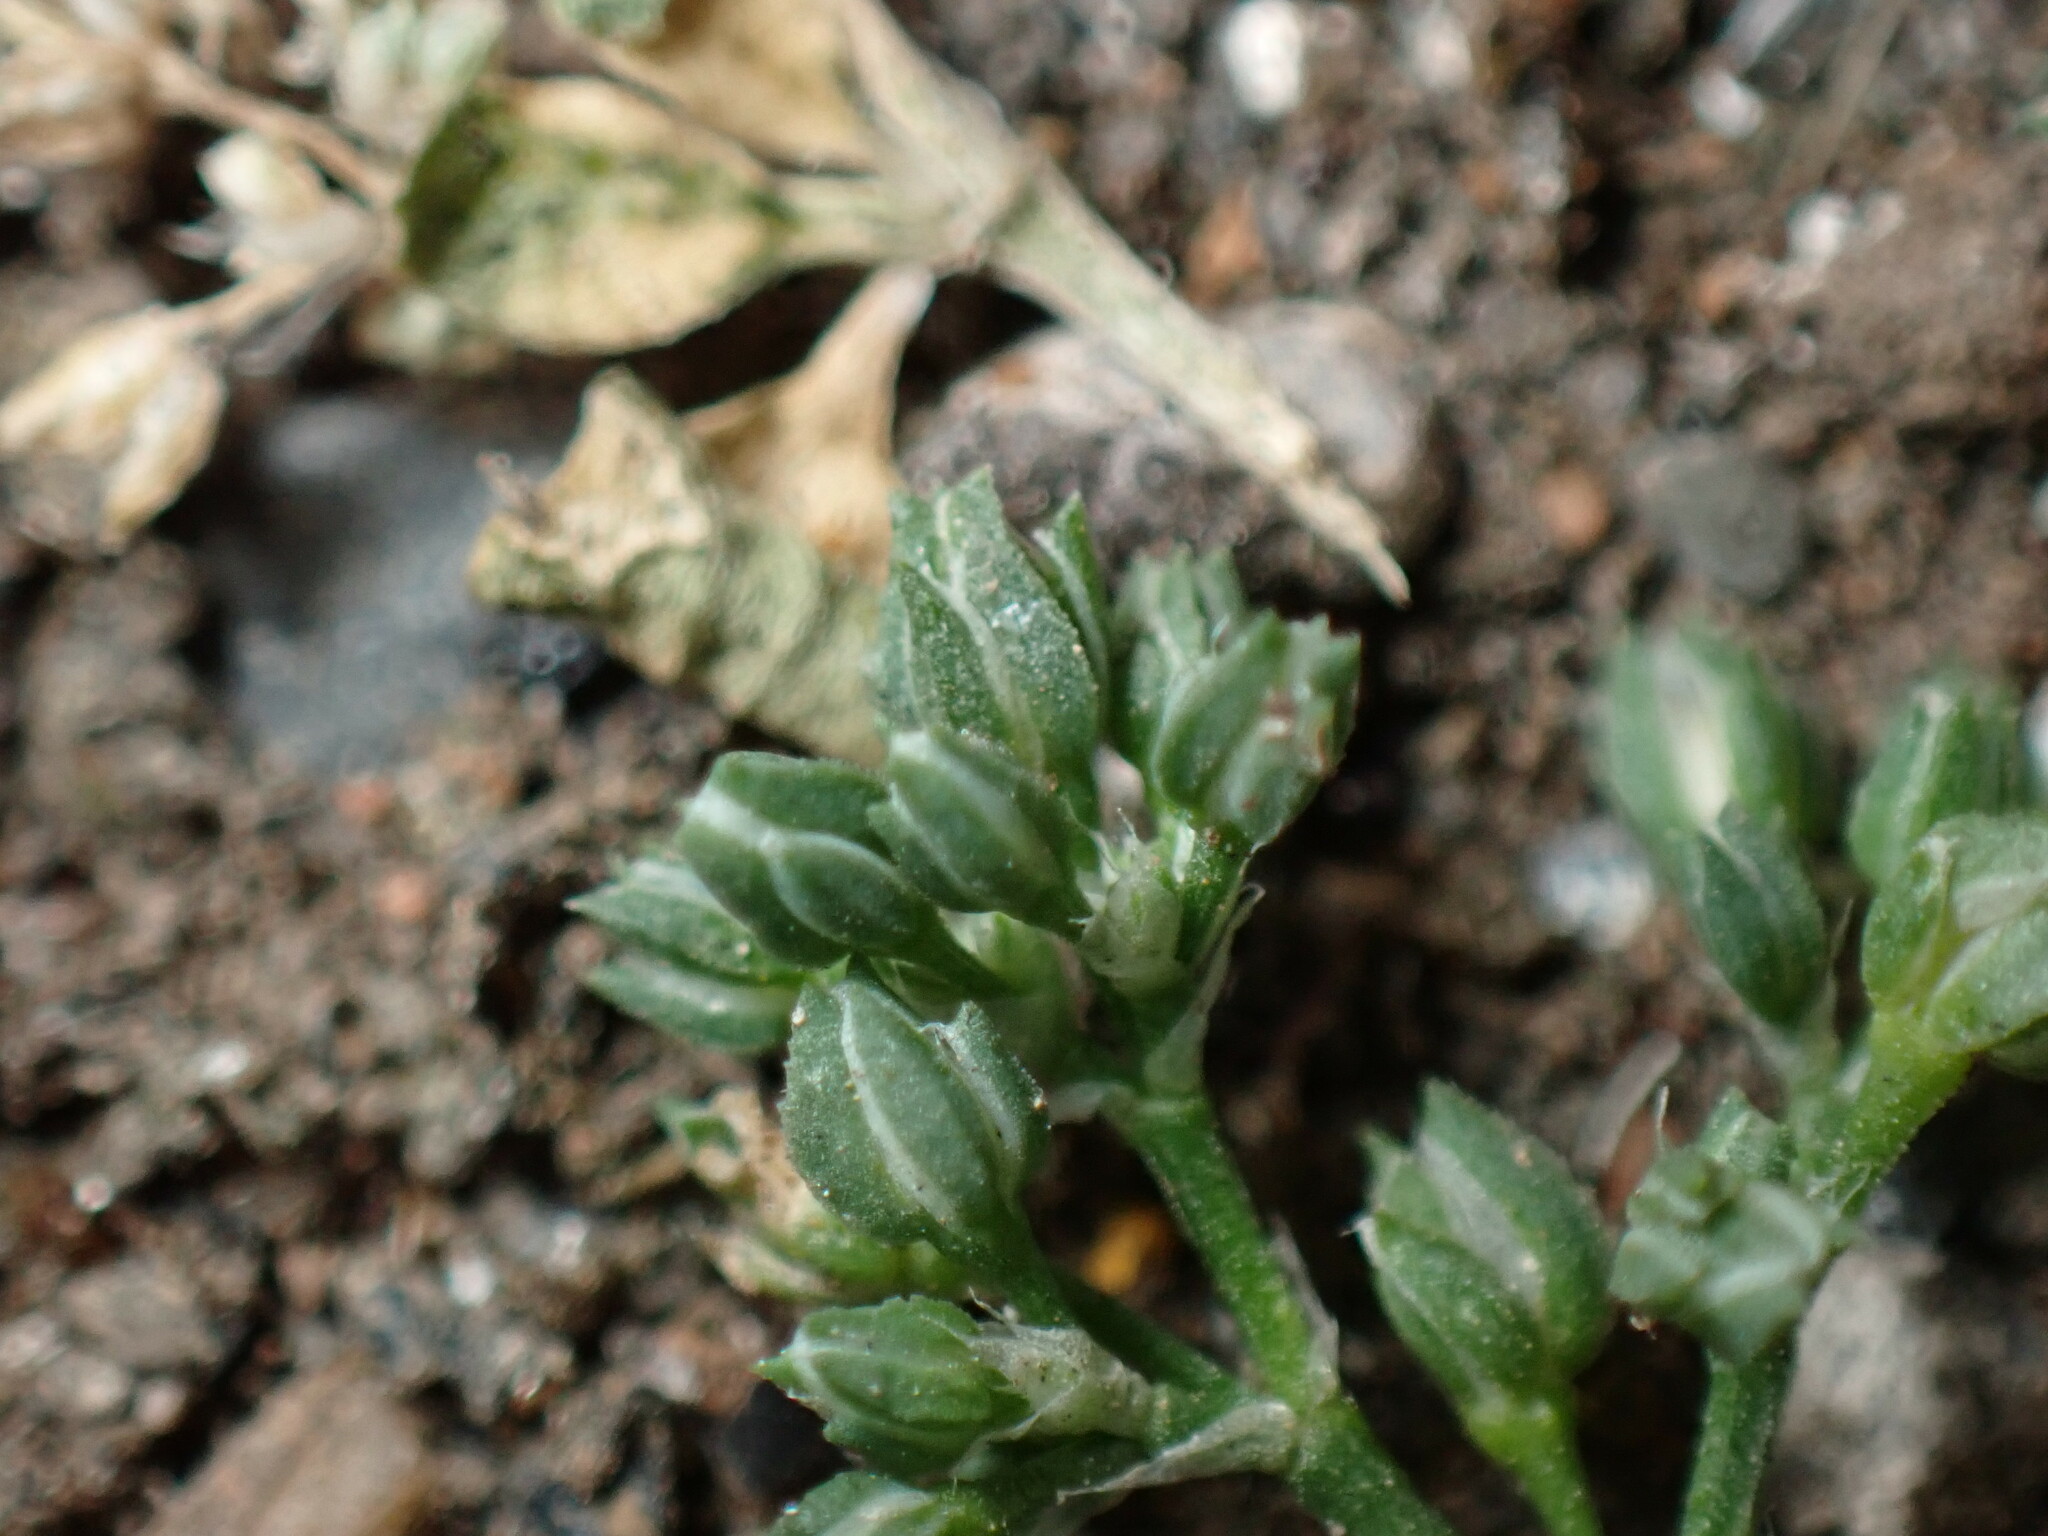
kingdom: Plantae
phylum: Tracheophyta
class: Magnoliopsida
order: Caryophyllales
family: Caryophyllaceae
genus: Polycarpon
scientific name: Polycarpon tetraphyllum
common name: Four-leaved all-seed
